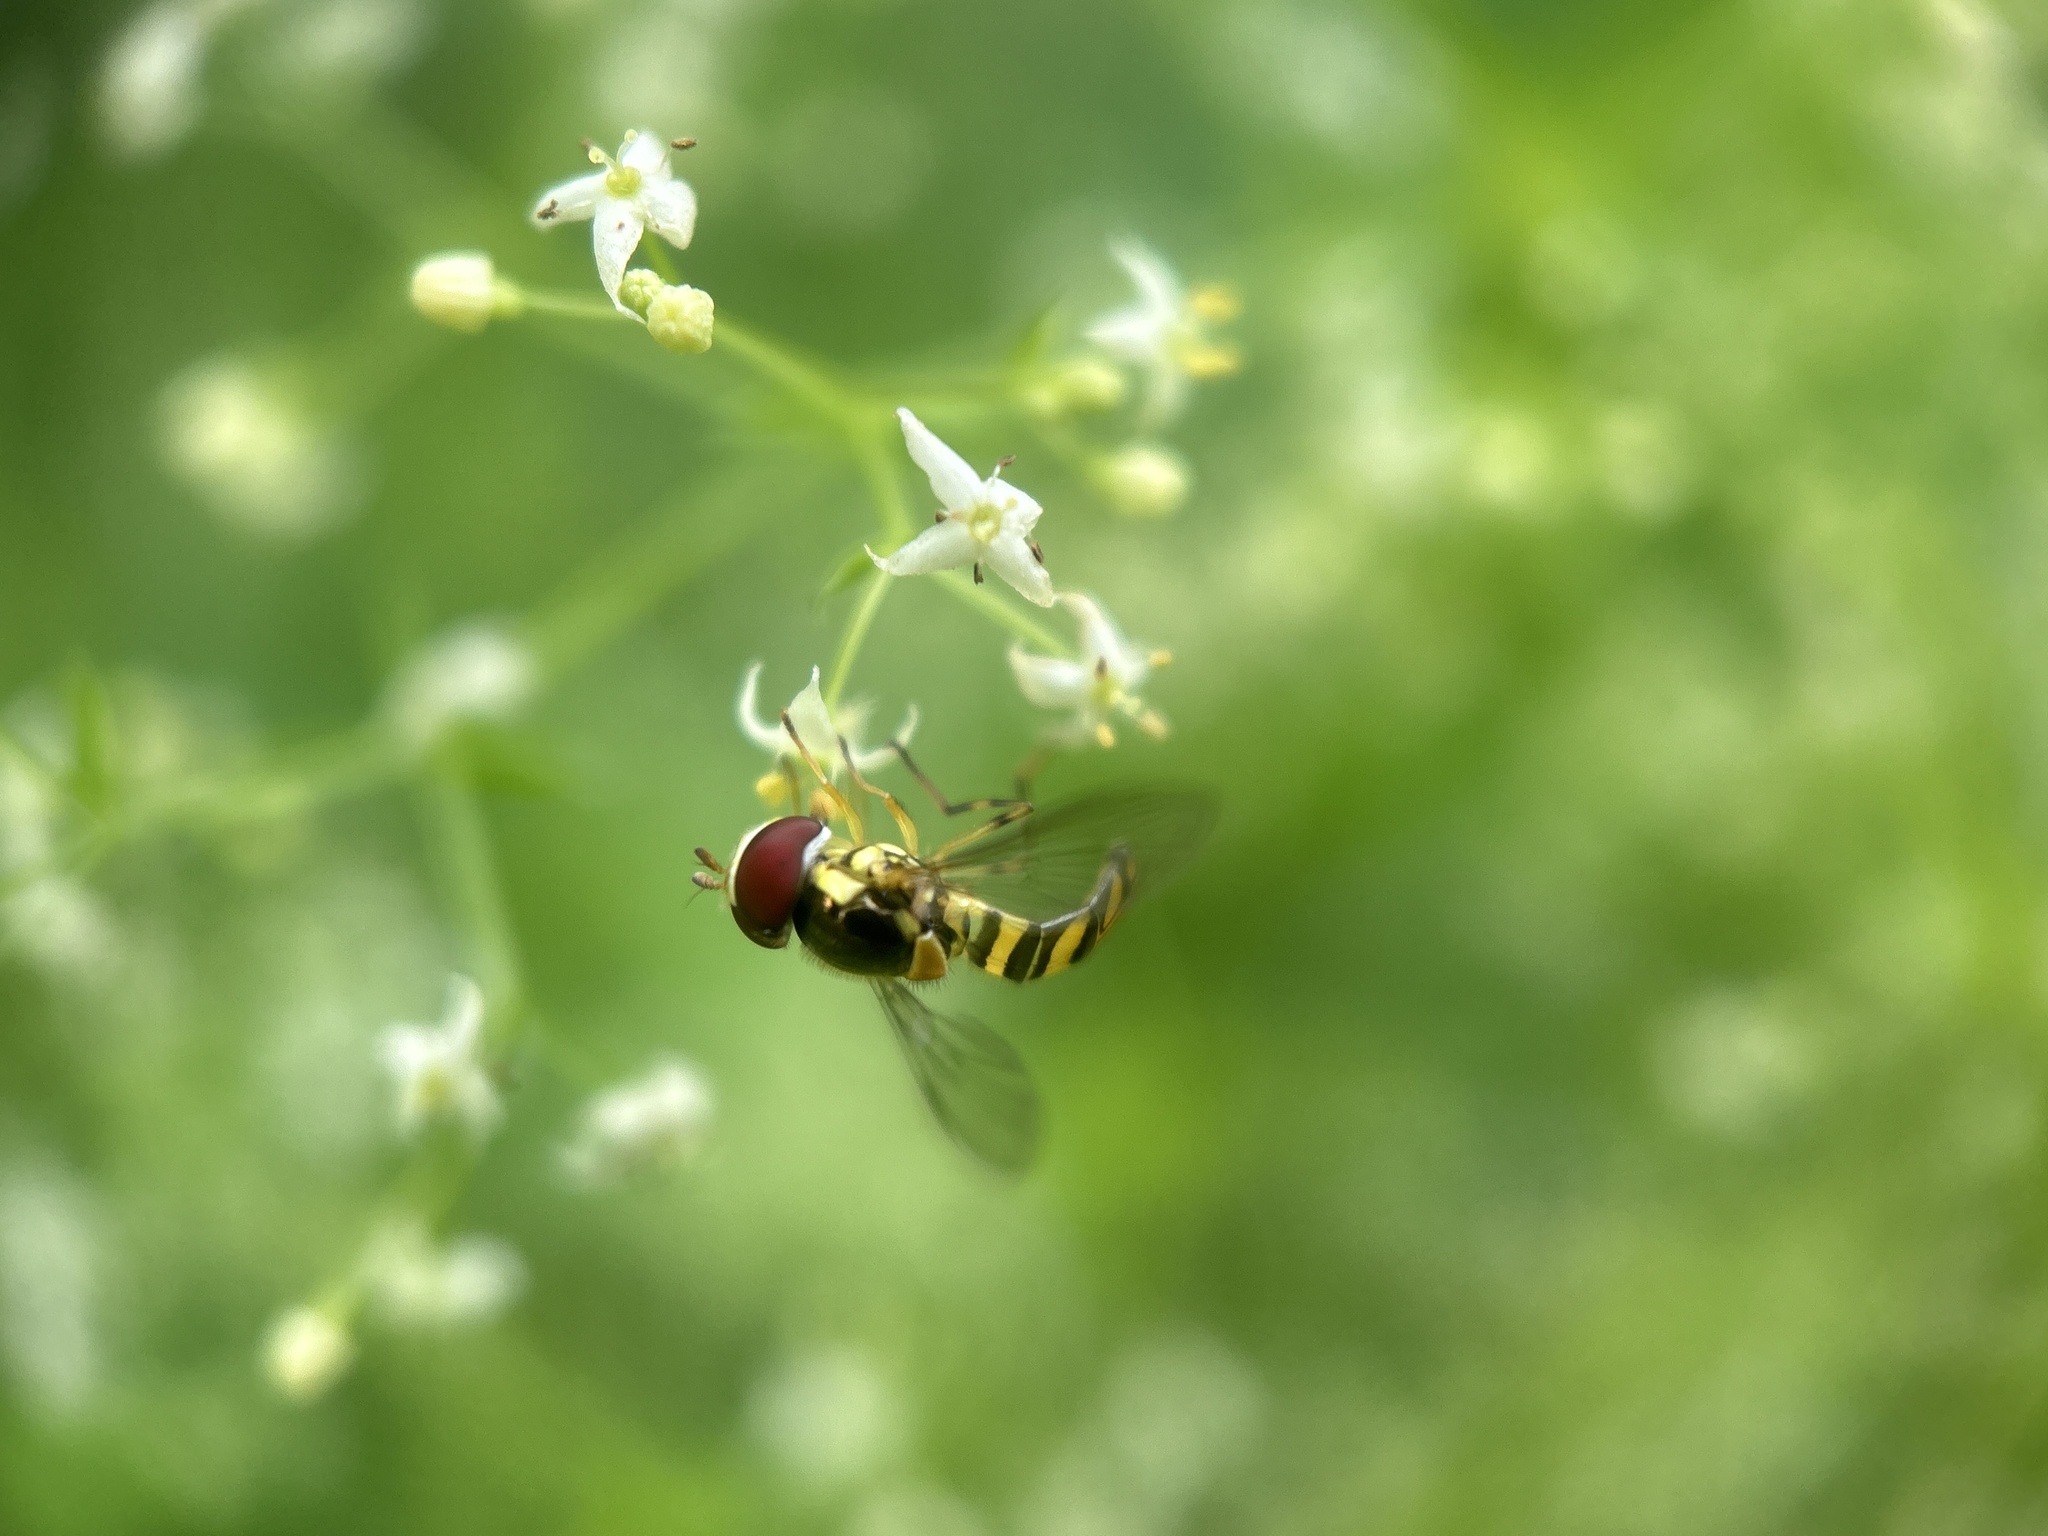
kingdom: Animalia
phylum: Arthropoda
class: Insecta
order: Diptera
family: Syrphidae
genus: Allograpta
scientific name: Allograpta obliqua
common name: Common oblique syrphid
